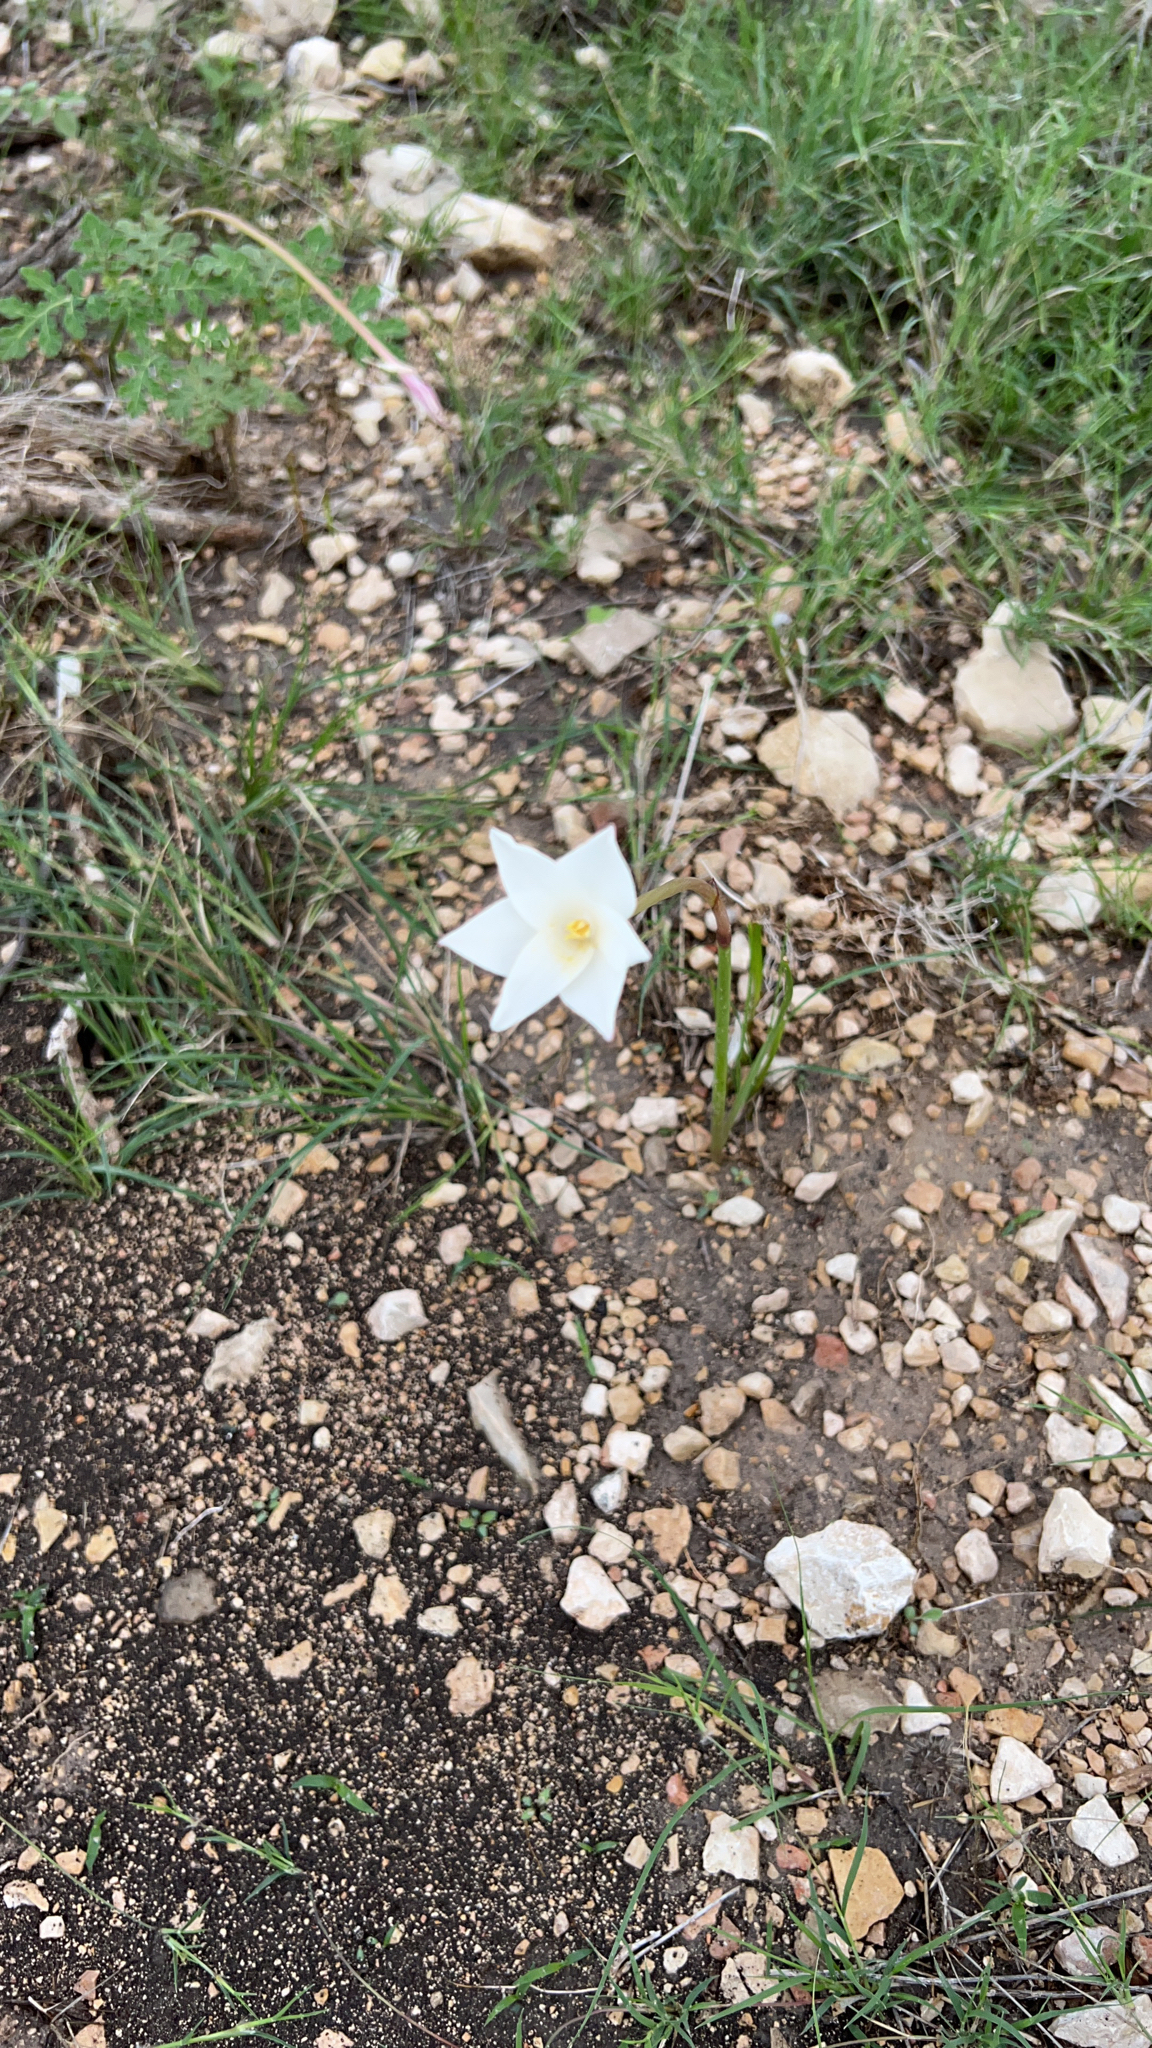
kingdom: Plantae
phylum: Tracheophyta
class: Liliopsida
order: Asparagales
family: Amaryllidaceae
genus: Zephyranthes
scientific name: Zephyranthes chlorosolen
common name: Evening rain-lily
